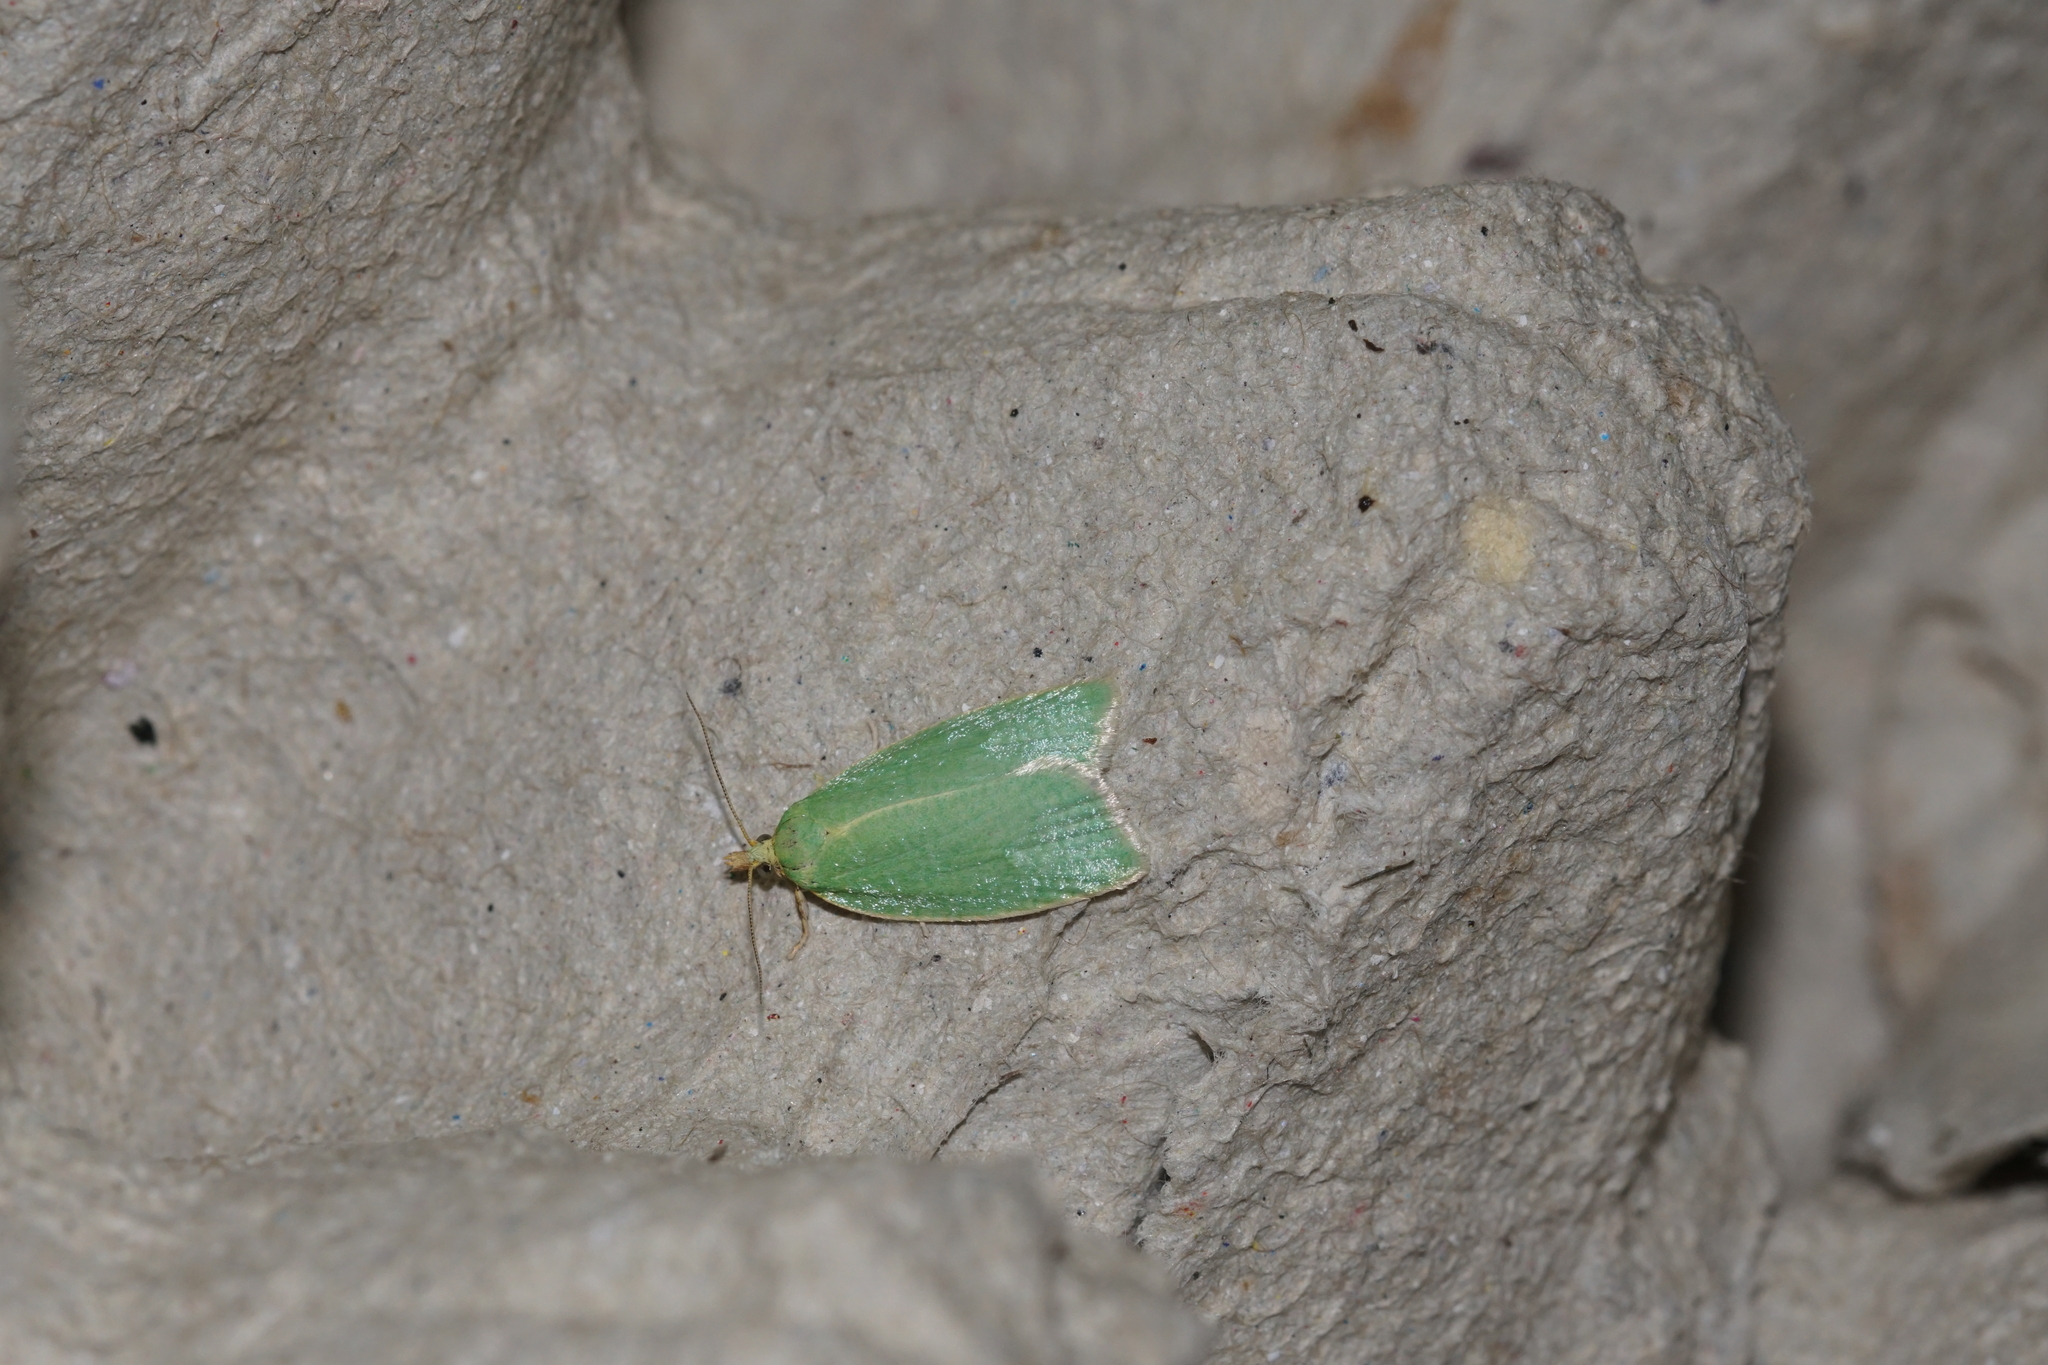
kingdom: Animalia
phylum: Arthropoda
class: Insecta
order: Lepidoptera
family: Tortricidae
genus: Tortrix
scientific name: Tortrix viridana
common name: Green oak tortrix
